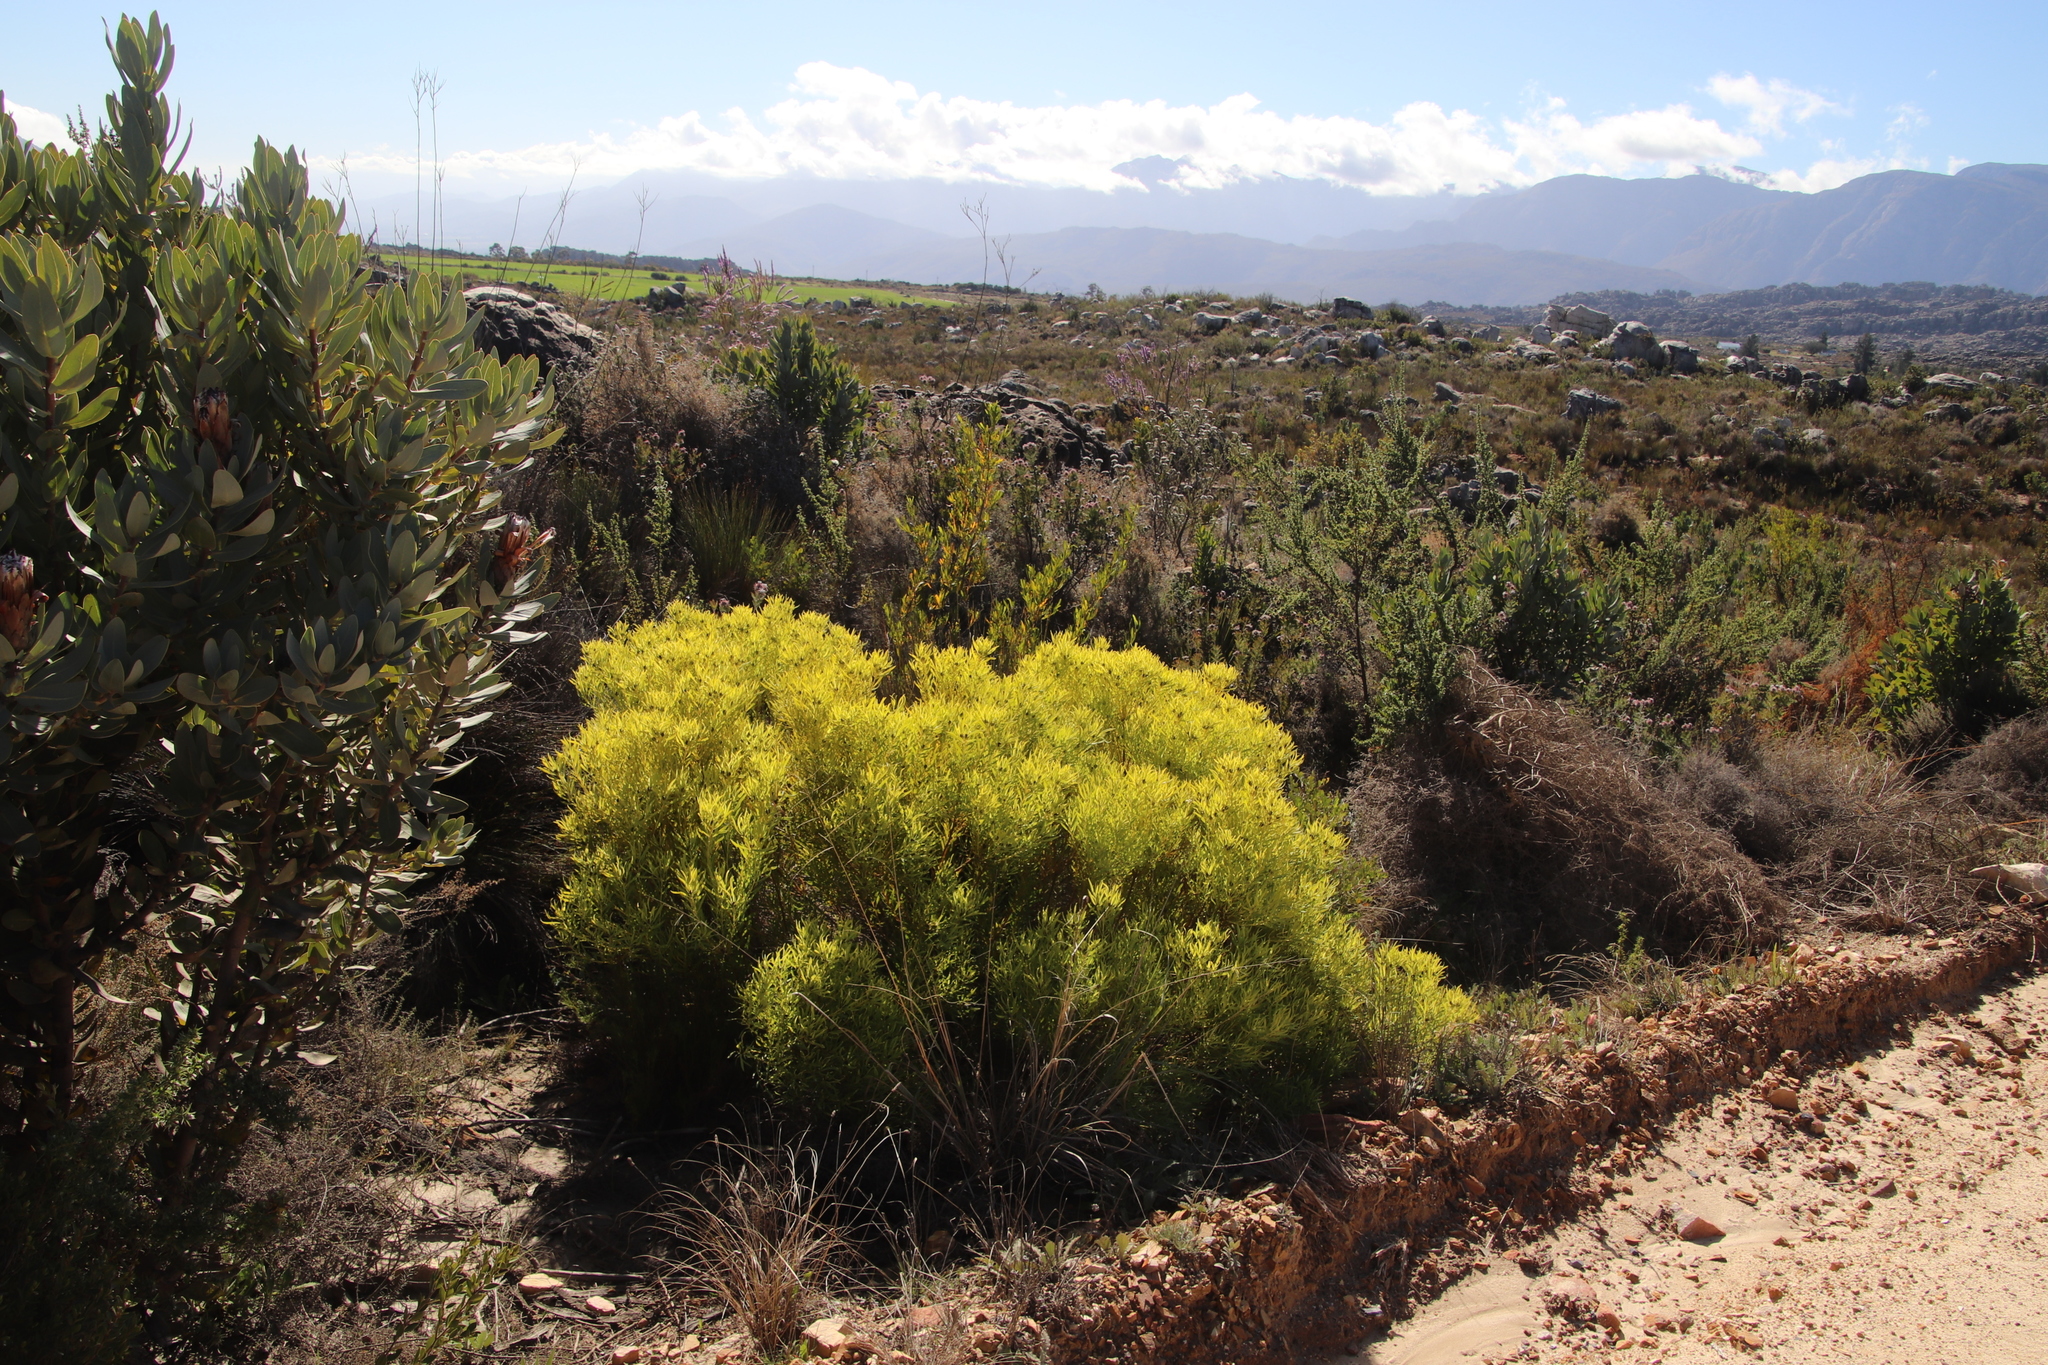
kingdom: Plantae
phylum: Tracheophyta
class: Magnoliopsida
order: Proteales
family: Proteaceae
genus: Leucadendron
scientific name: Leucadendron salignum
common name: Common sunshine conebush
